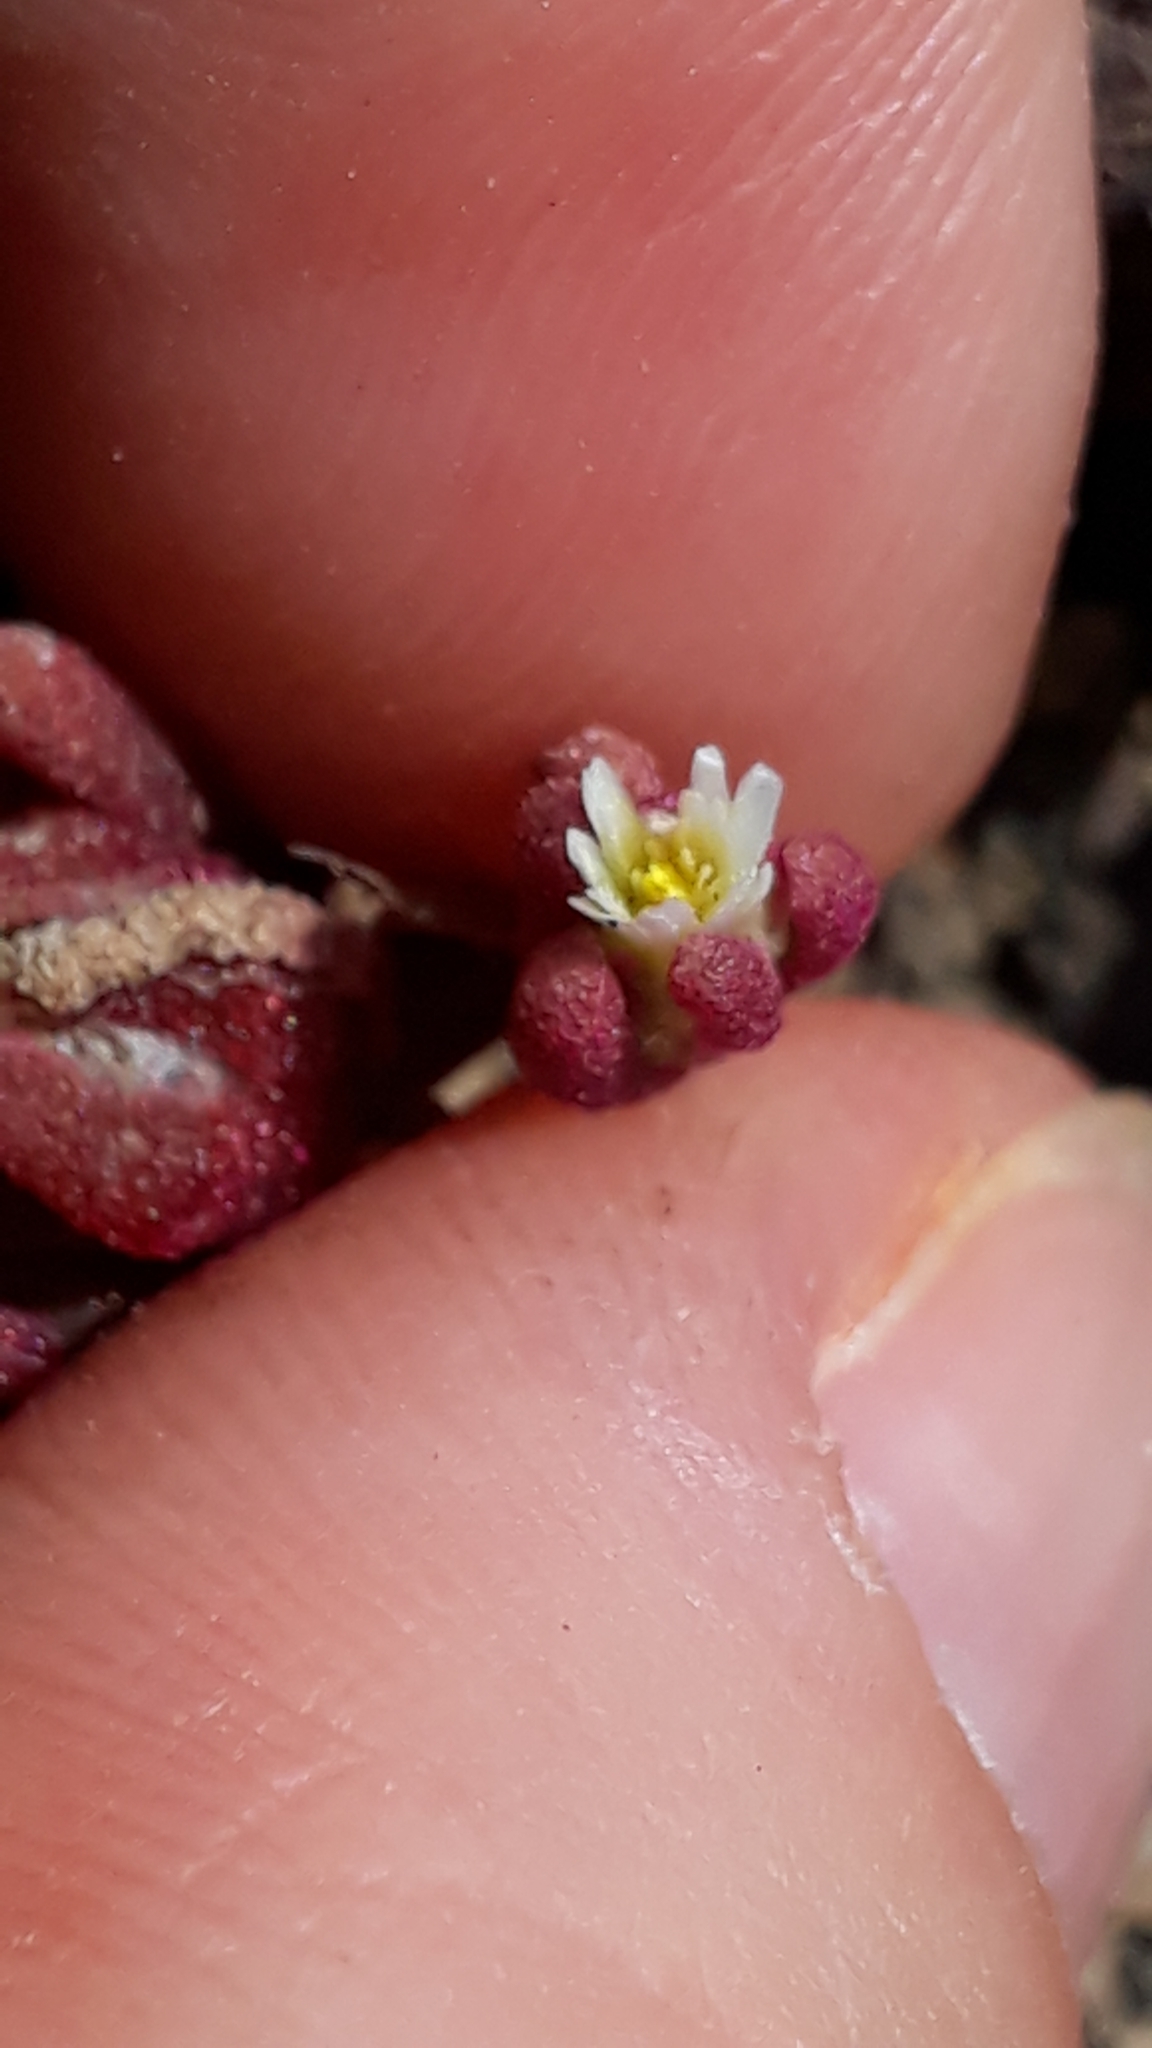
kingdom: Plantae
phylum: Tracheophyta
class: Magnoliopsida
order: Caryophyllales
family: Aizoaceae
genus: Mesembryanthemum
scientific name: Mesembryanthemum nodiflorum
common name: Slenderleaf iceplant
